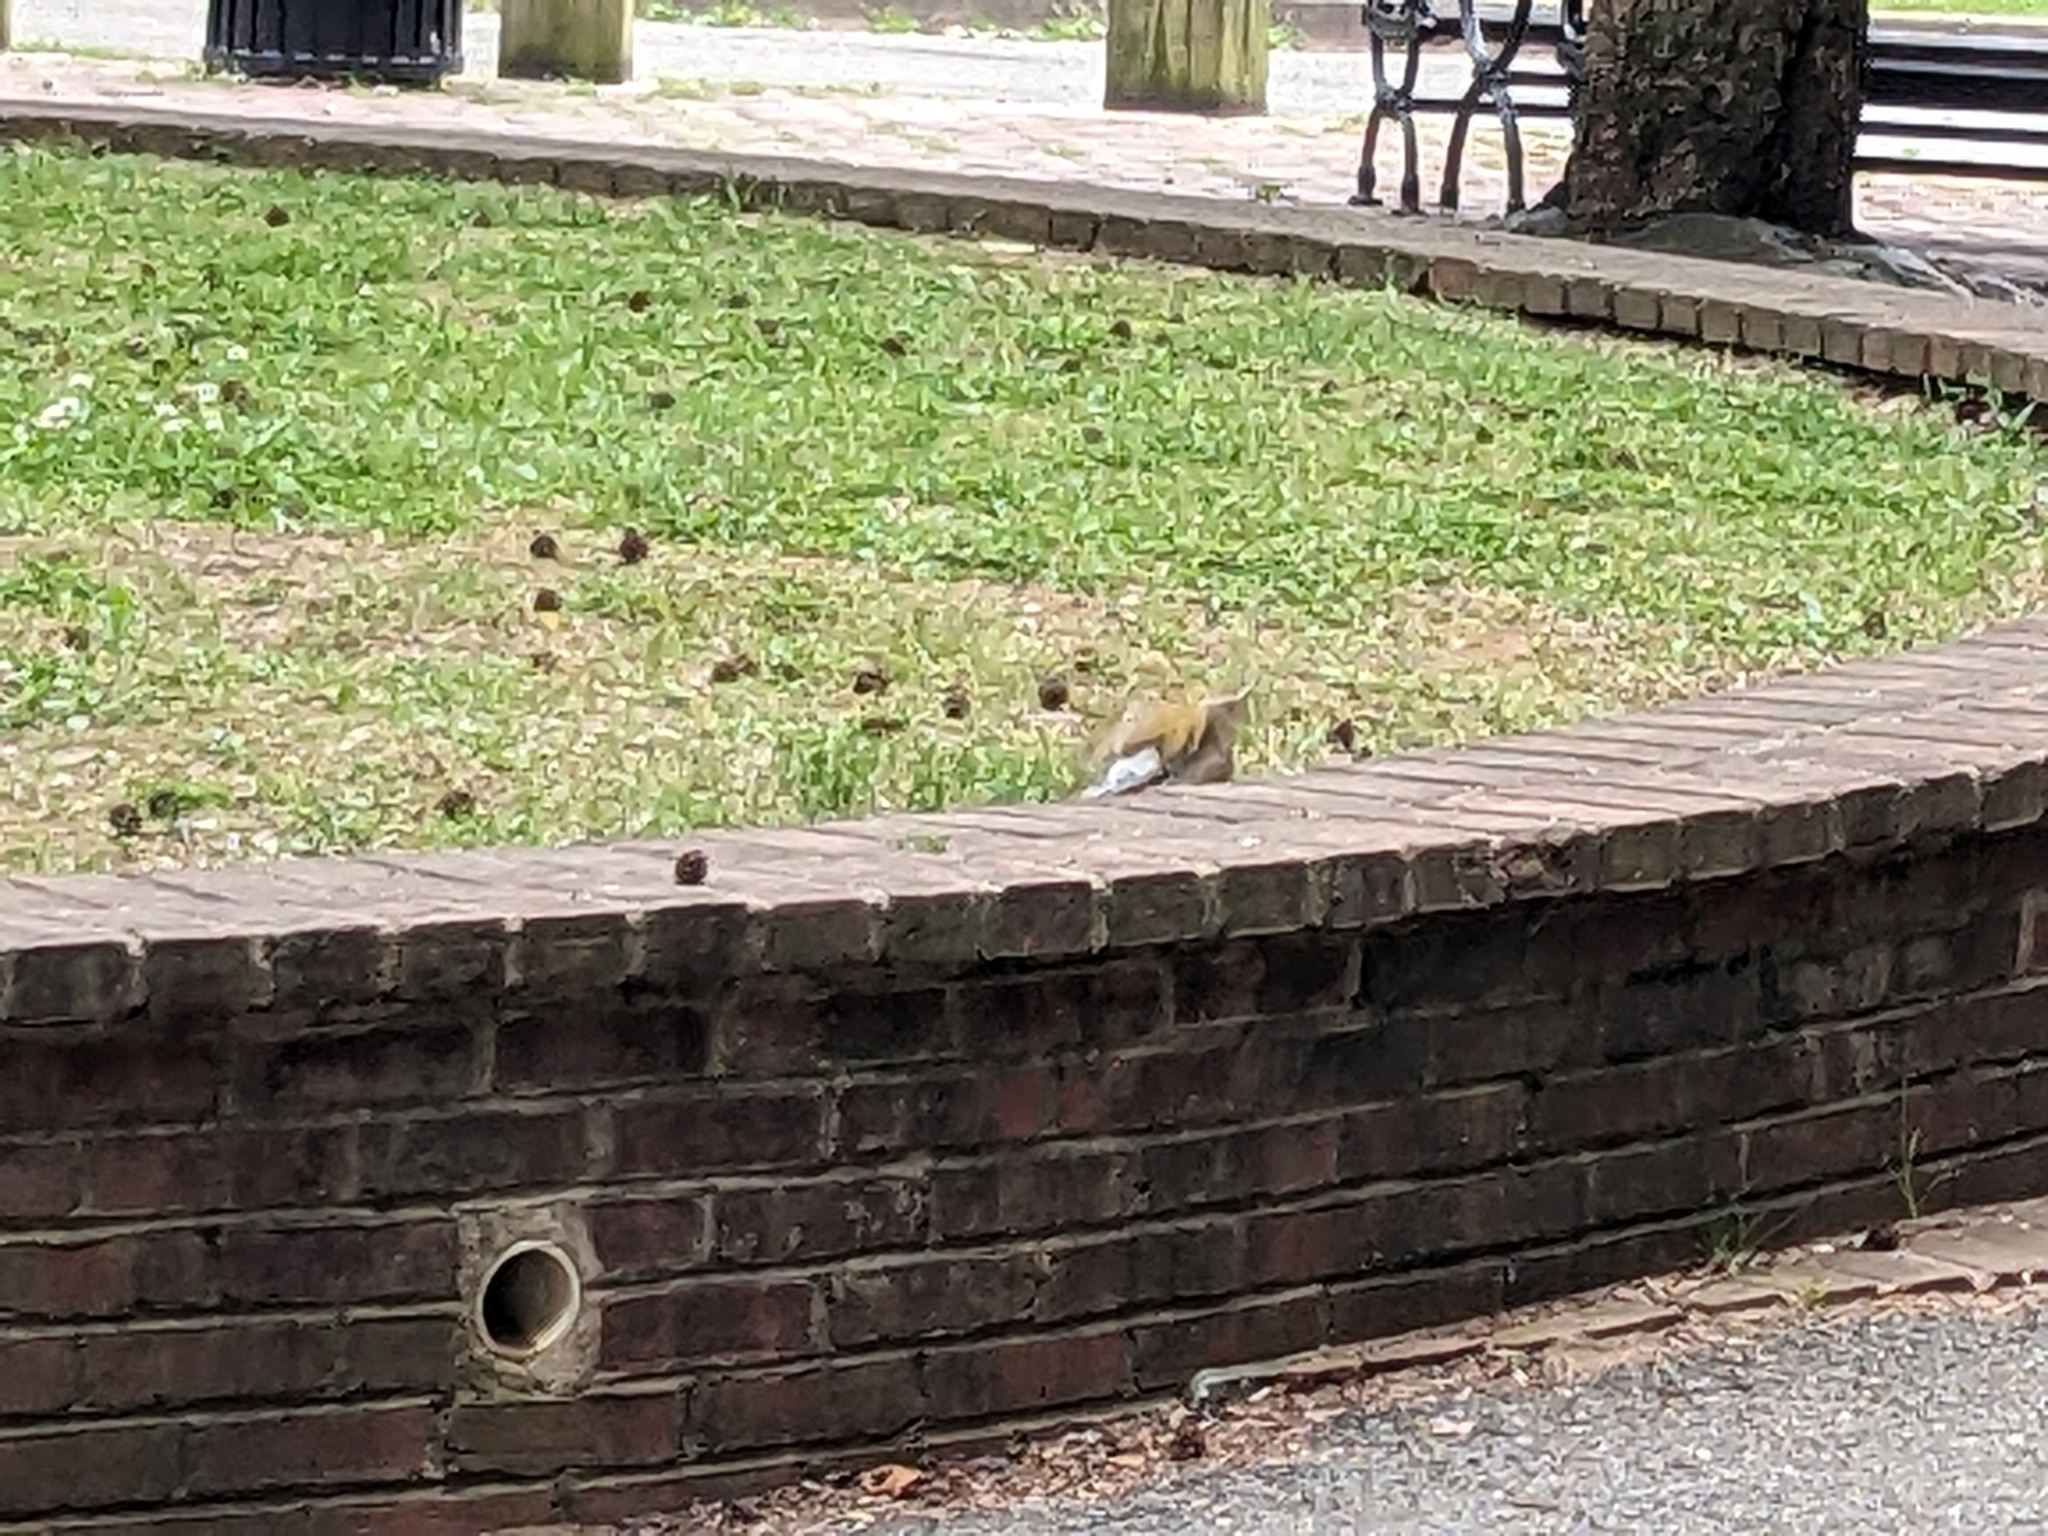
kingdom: Animalia
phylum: Chordata
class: Aves
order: Piciformes
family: Picidae
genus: Colaptes
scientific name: Colaptes auratus
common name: Northern flicker
